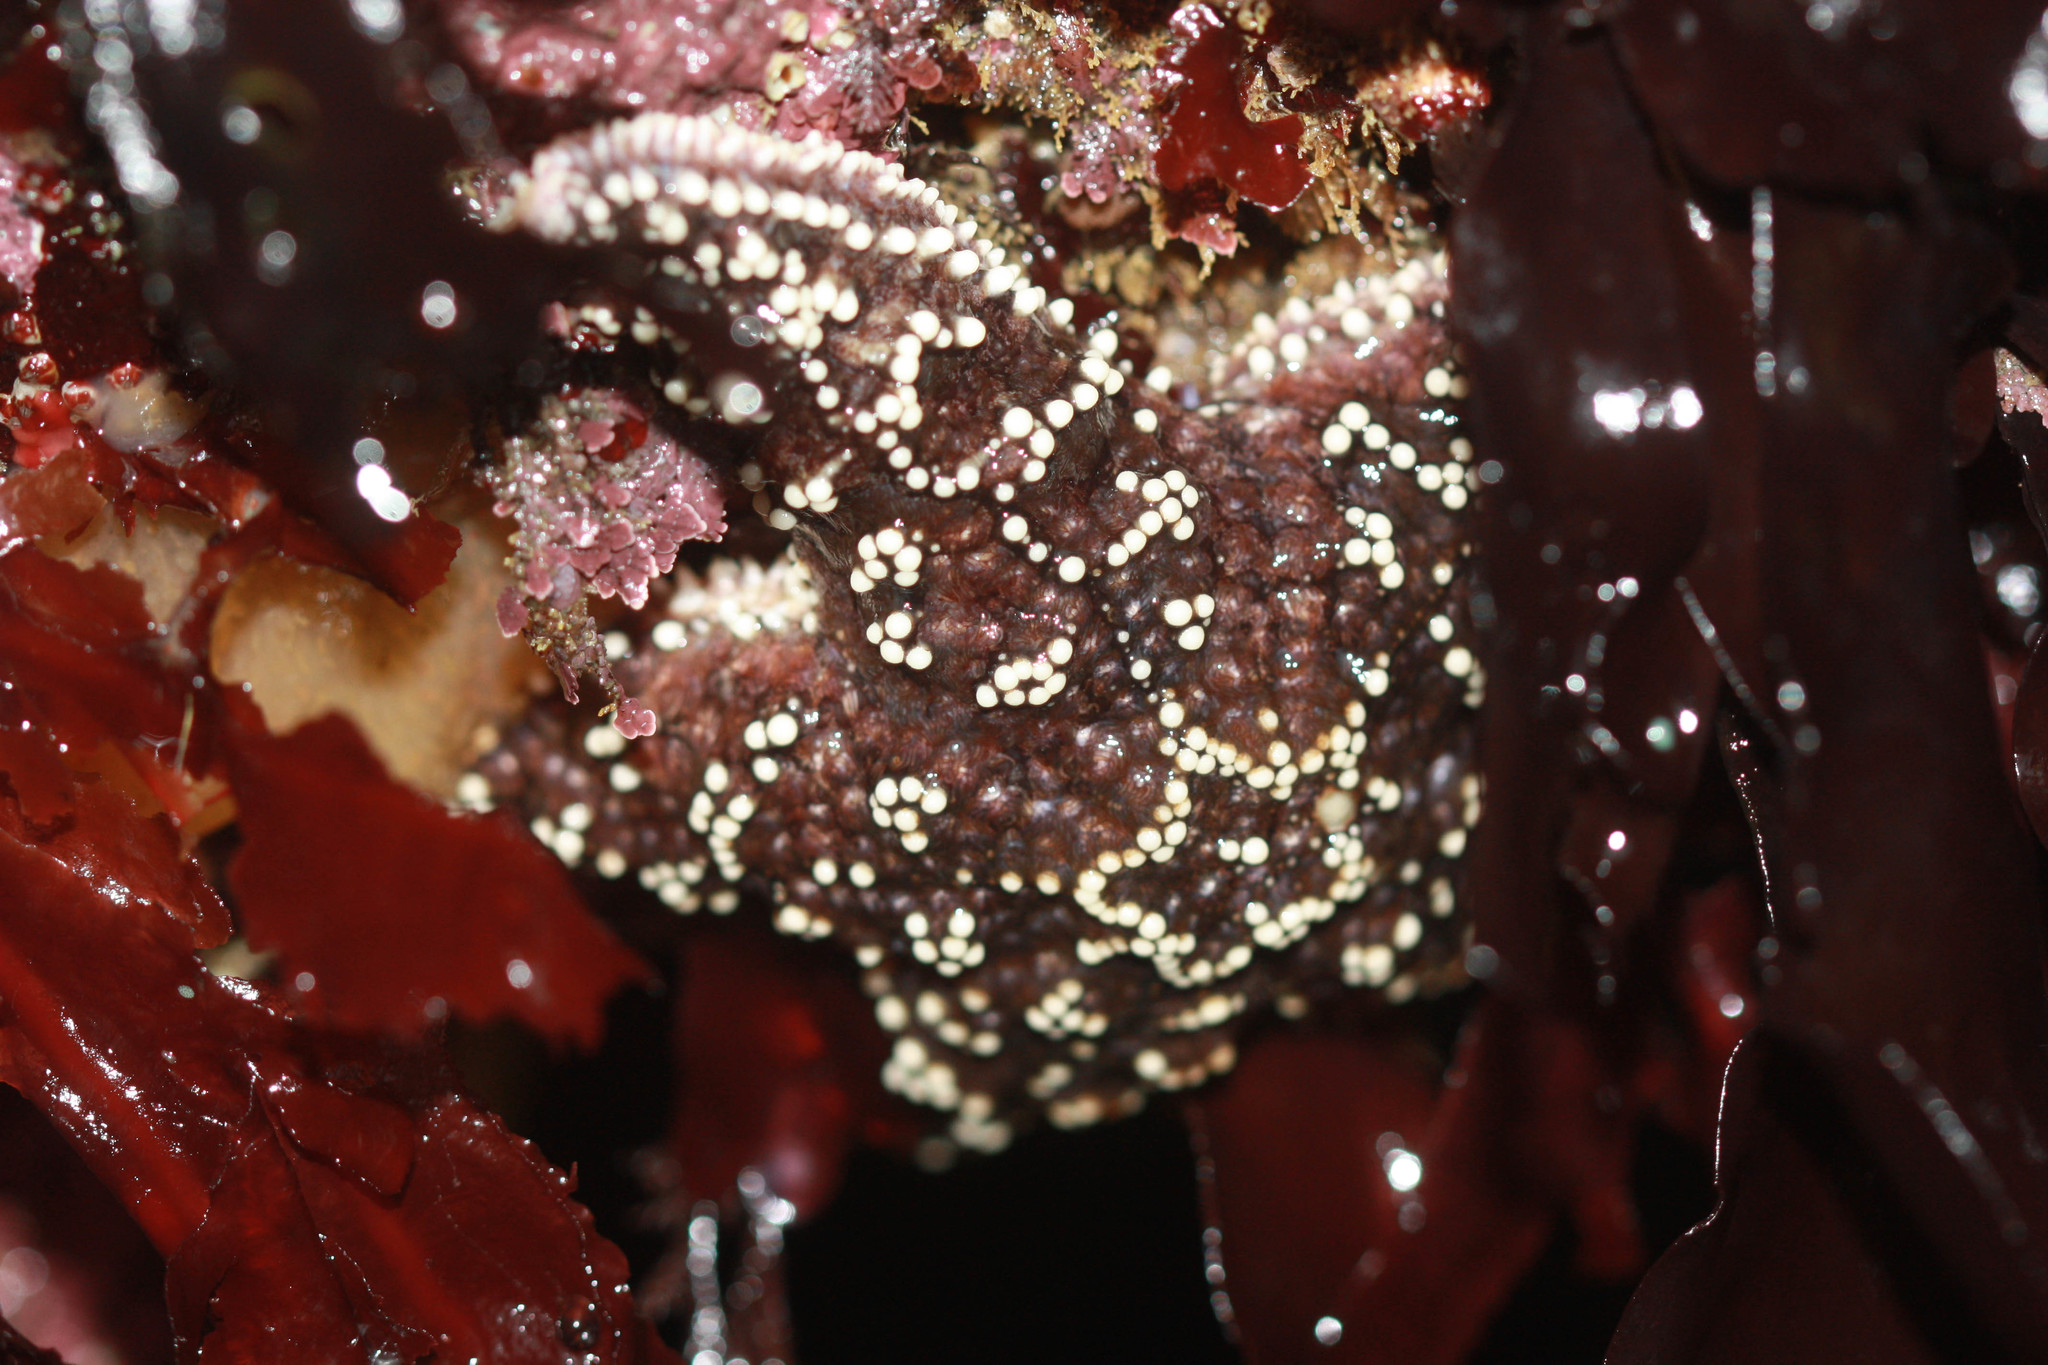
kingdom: Animalia
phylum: Echinodermata
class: Asteroidea
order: Forcipulatida
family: Asteriidae
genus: Pisaster
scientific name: Pisaster ochraceus
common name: Ochre stars
